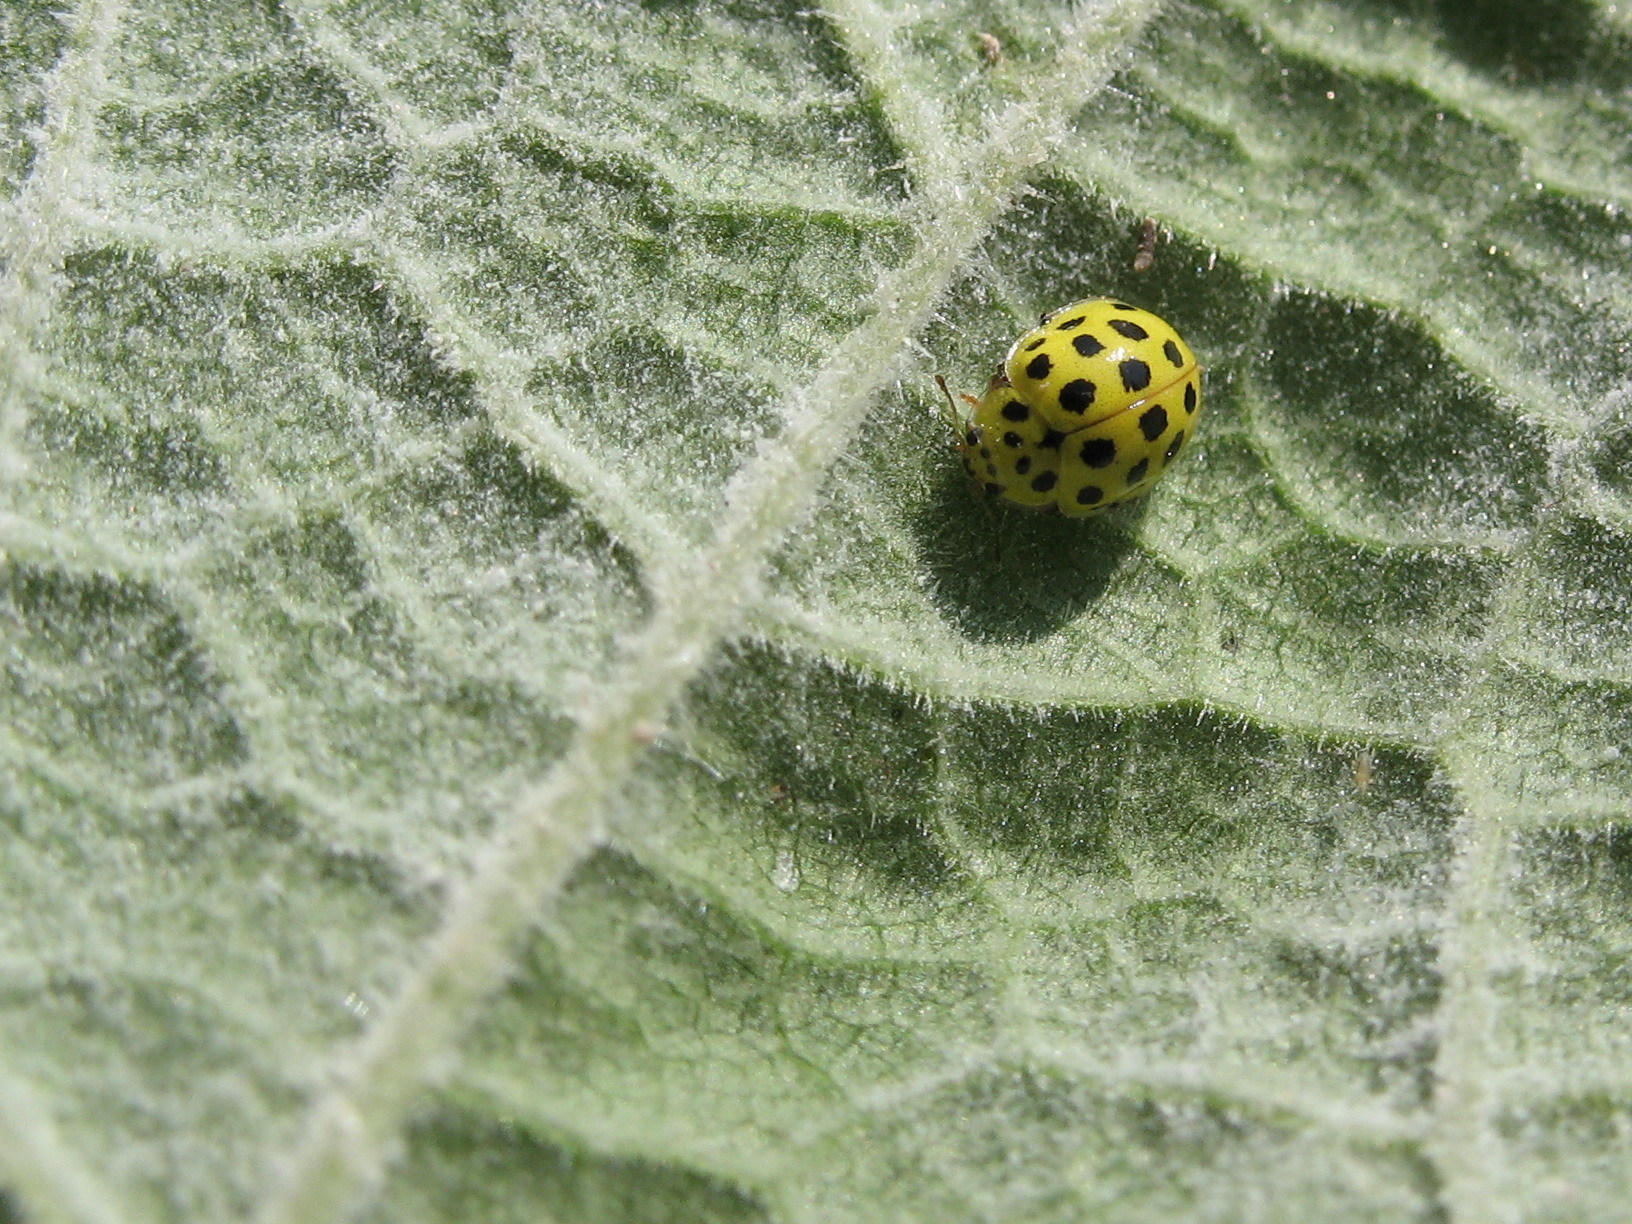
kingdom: Animalia
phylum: Arthropoda
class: Insecta
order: Coleoptera
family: Coccinellidae
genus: Psyllobora
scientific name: Psyllobora vigintiduopunctata
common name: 22-spot ladybird
